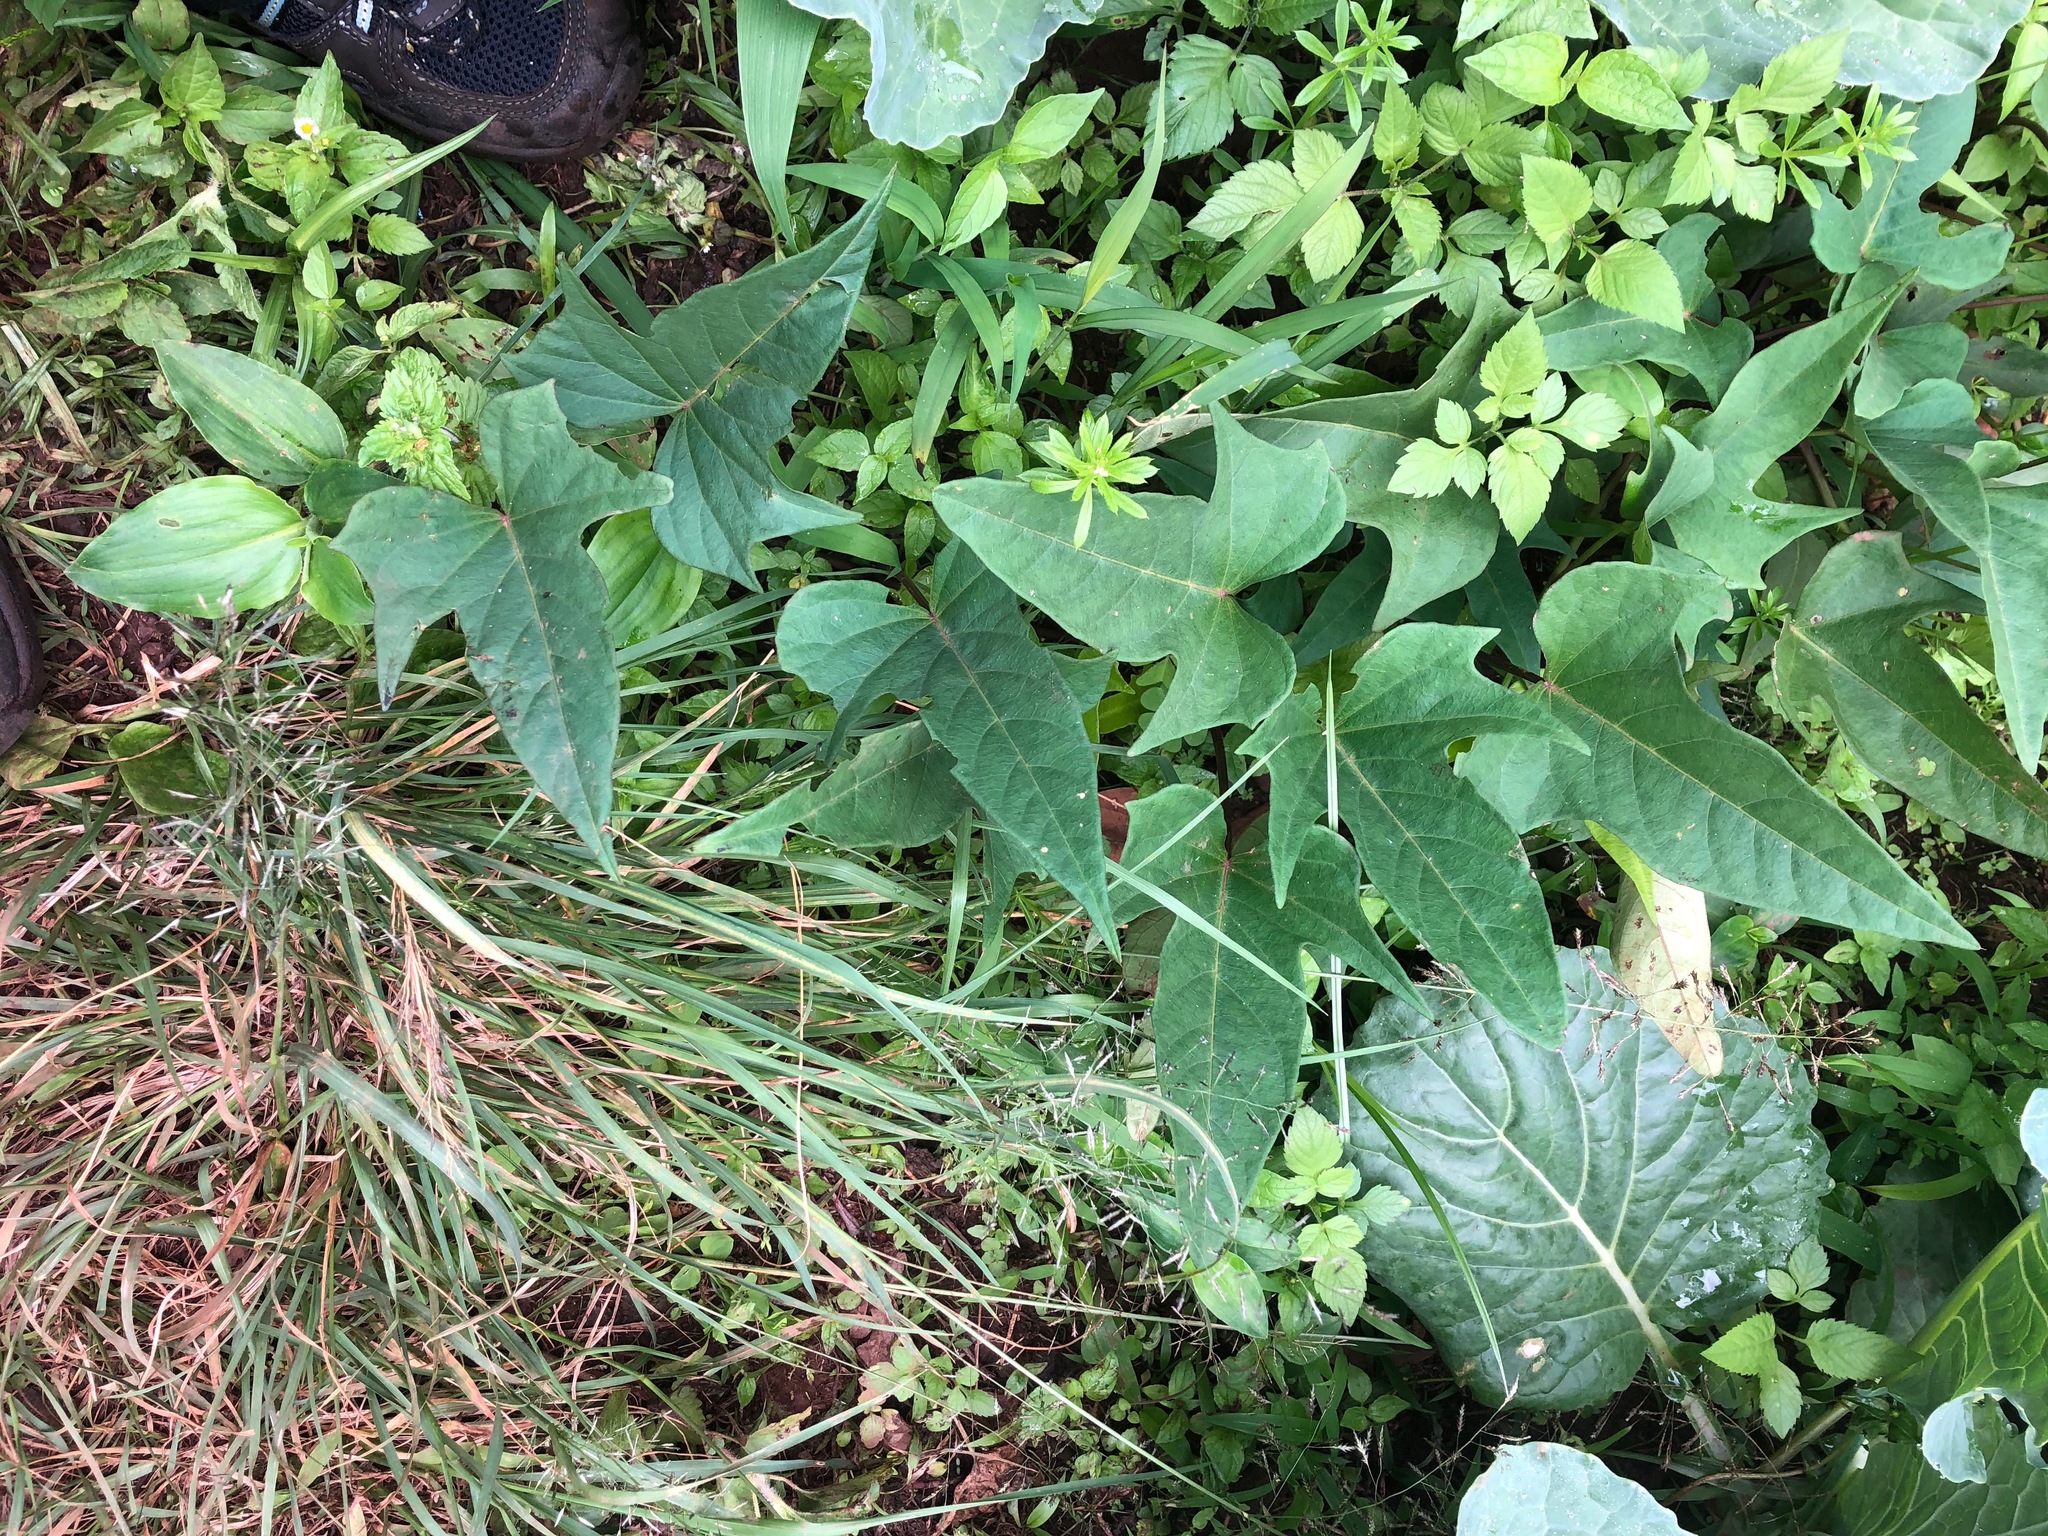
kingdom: Plantae
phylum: Tracheophyta
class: Magnoliopsida
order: Solanales
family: Convolvulaceae
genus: Ipomoea
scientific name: Ipomoea batatas
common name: Sweet-potato
